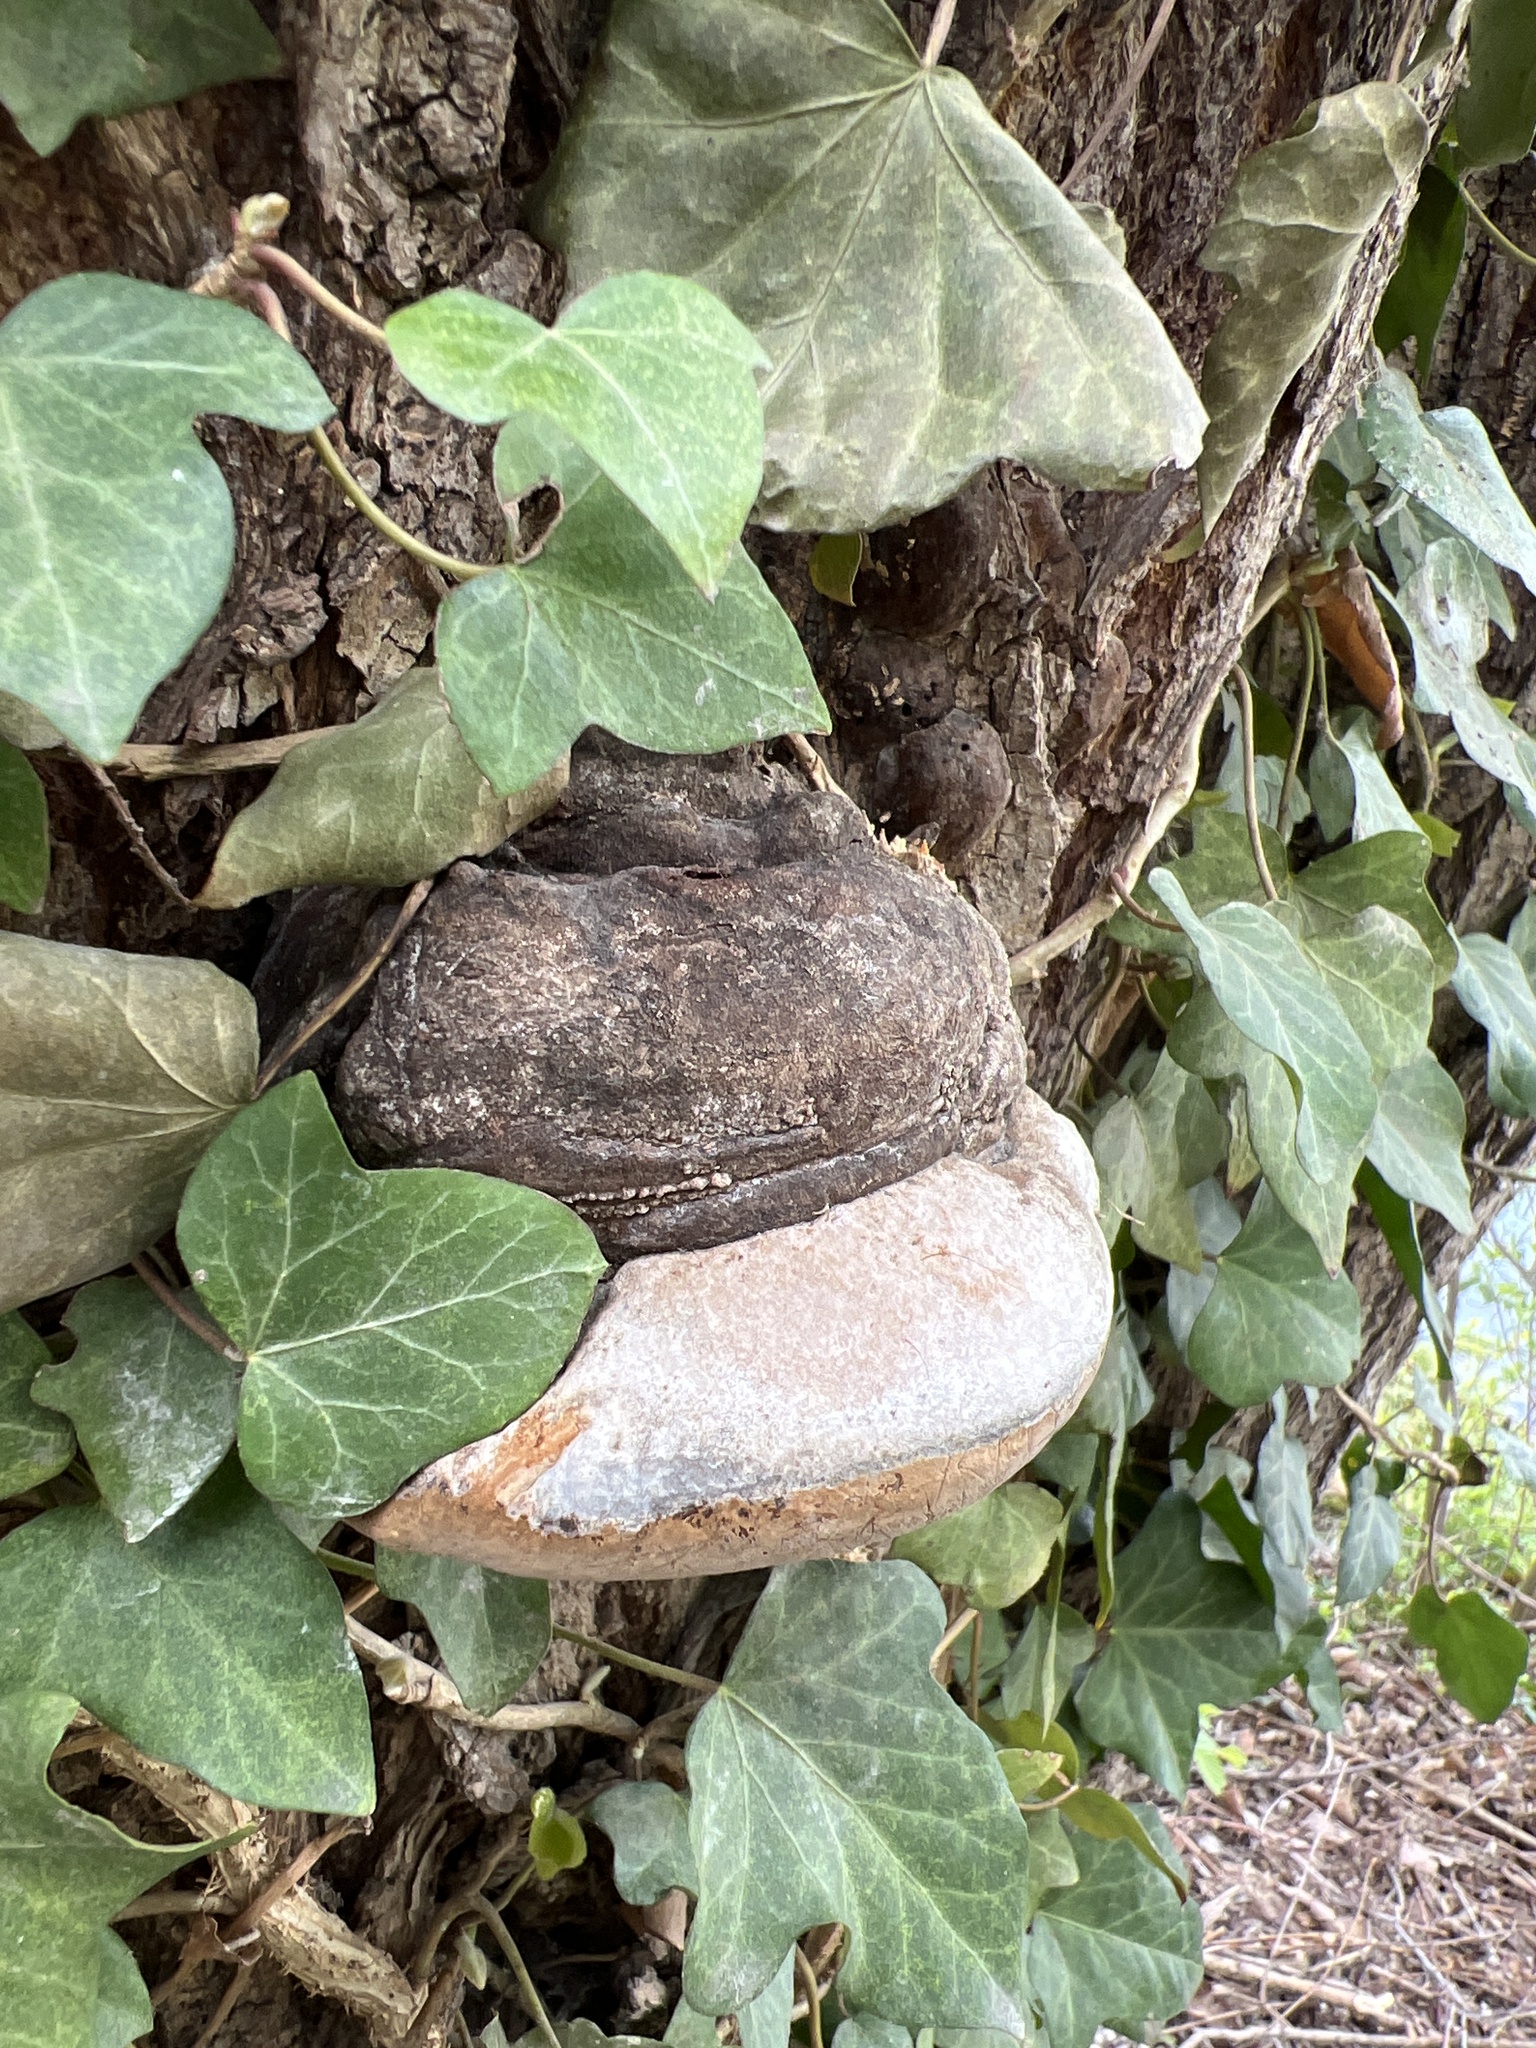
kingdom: Fungi
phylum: Basidiomycota
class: Agaricomycetes
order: Hymenochaetales
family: Hymenochaetaceae
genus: Phellinus
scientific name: Phellinus igniarius
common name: Willow bracket
